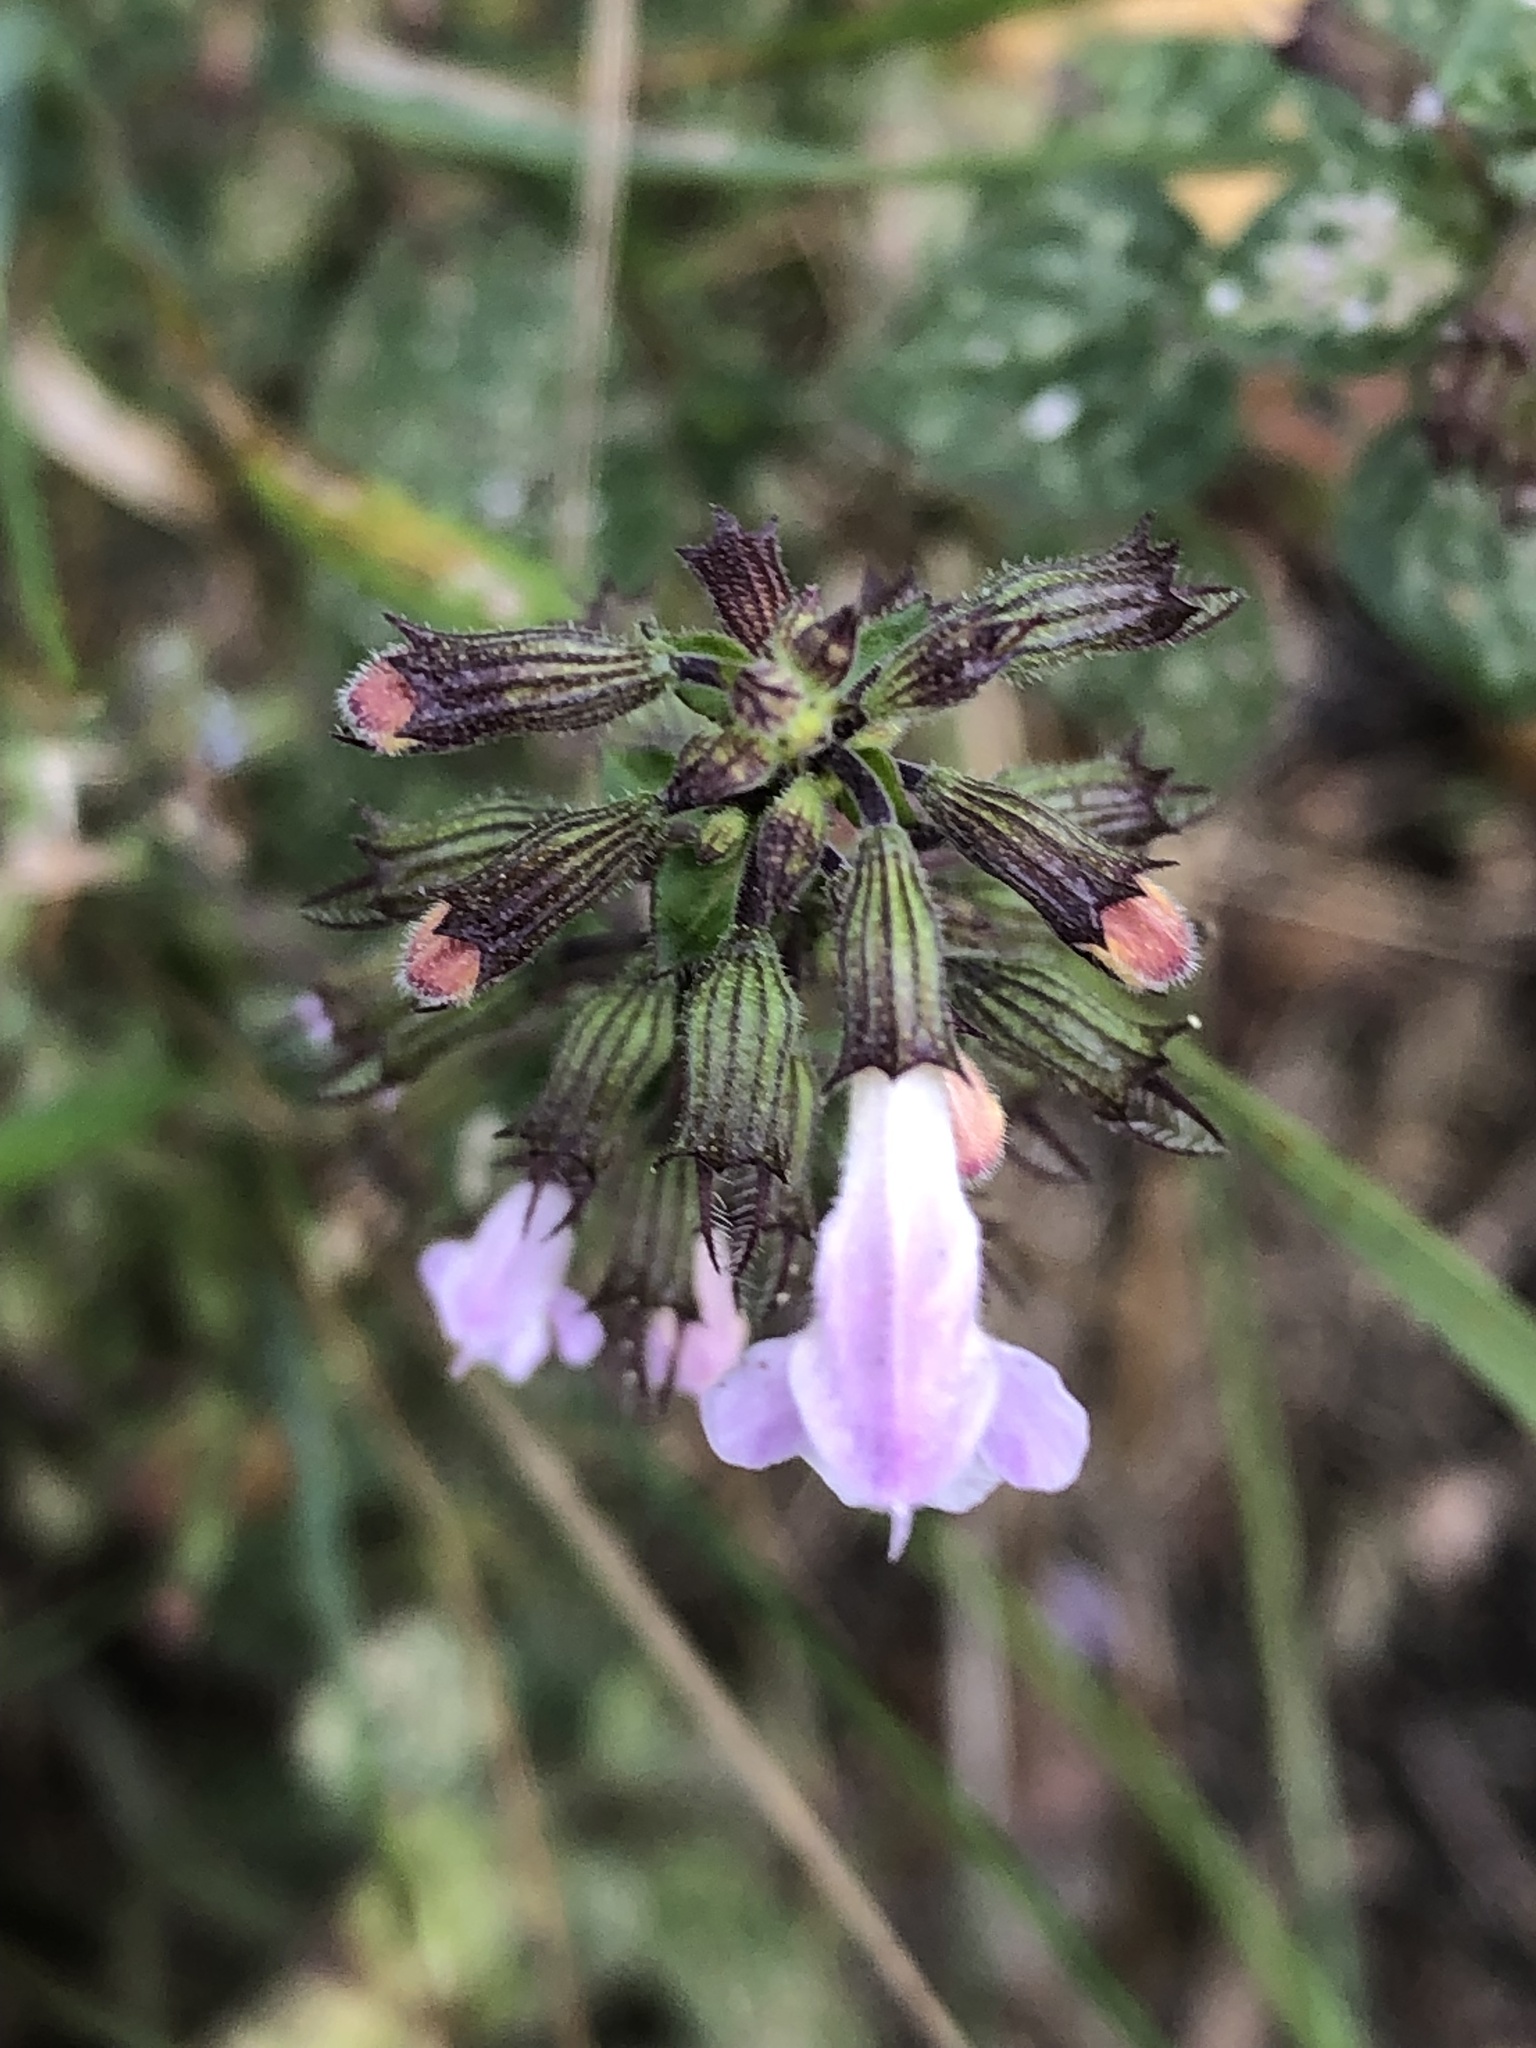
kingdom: Plantae
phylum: Tracheophyta
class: Magnoliopsida
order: Lamiales
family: Lamiaceae
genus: Clinopodium
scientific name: Clinopodium menthifolium
